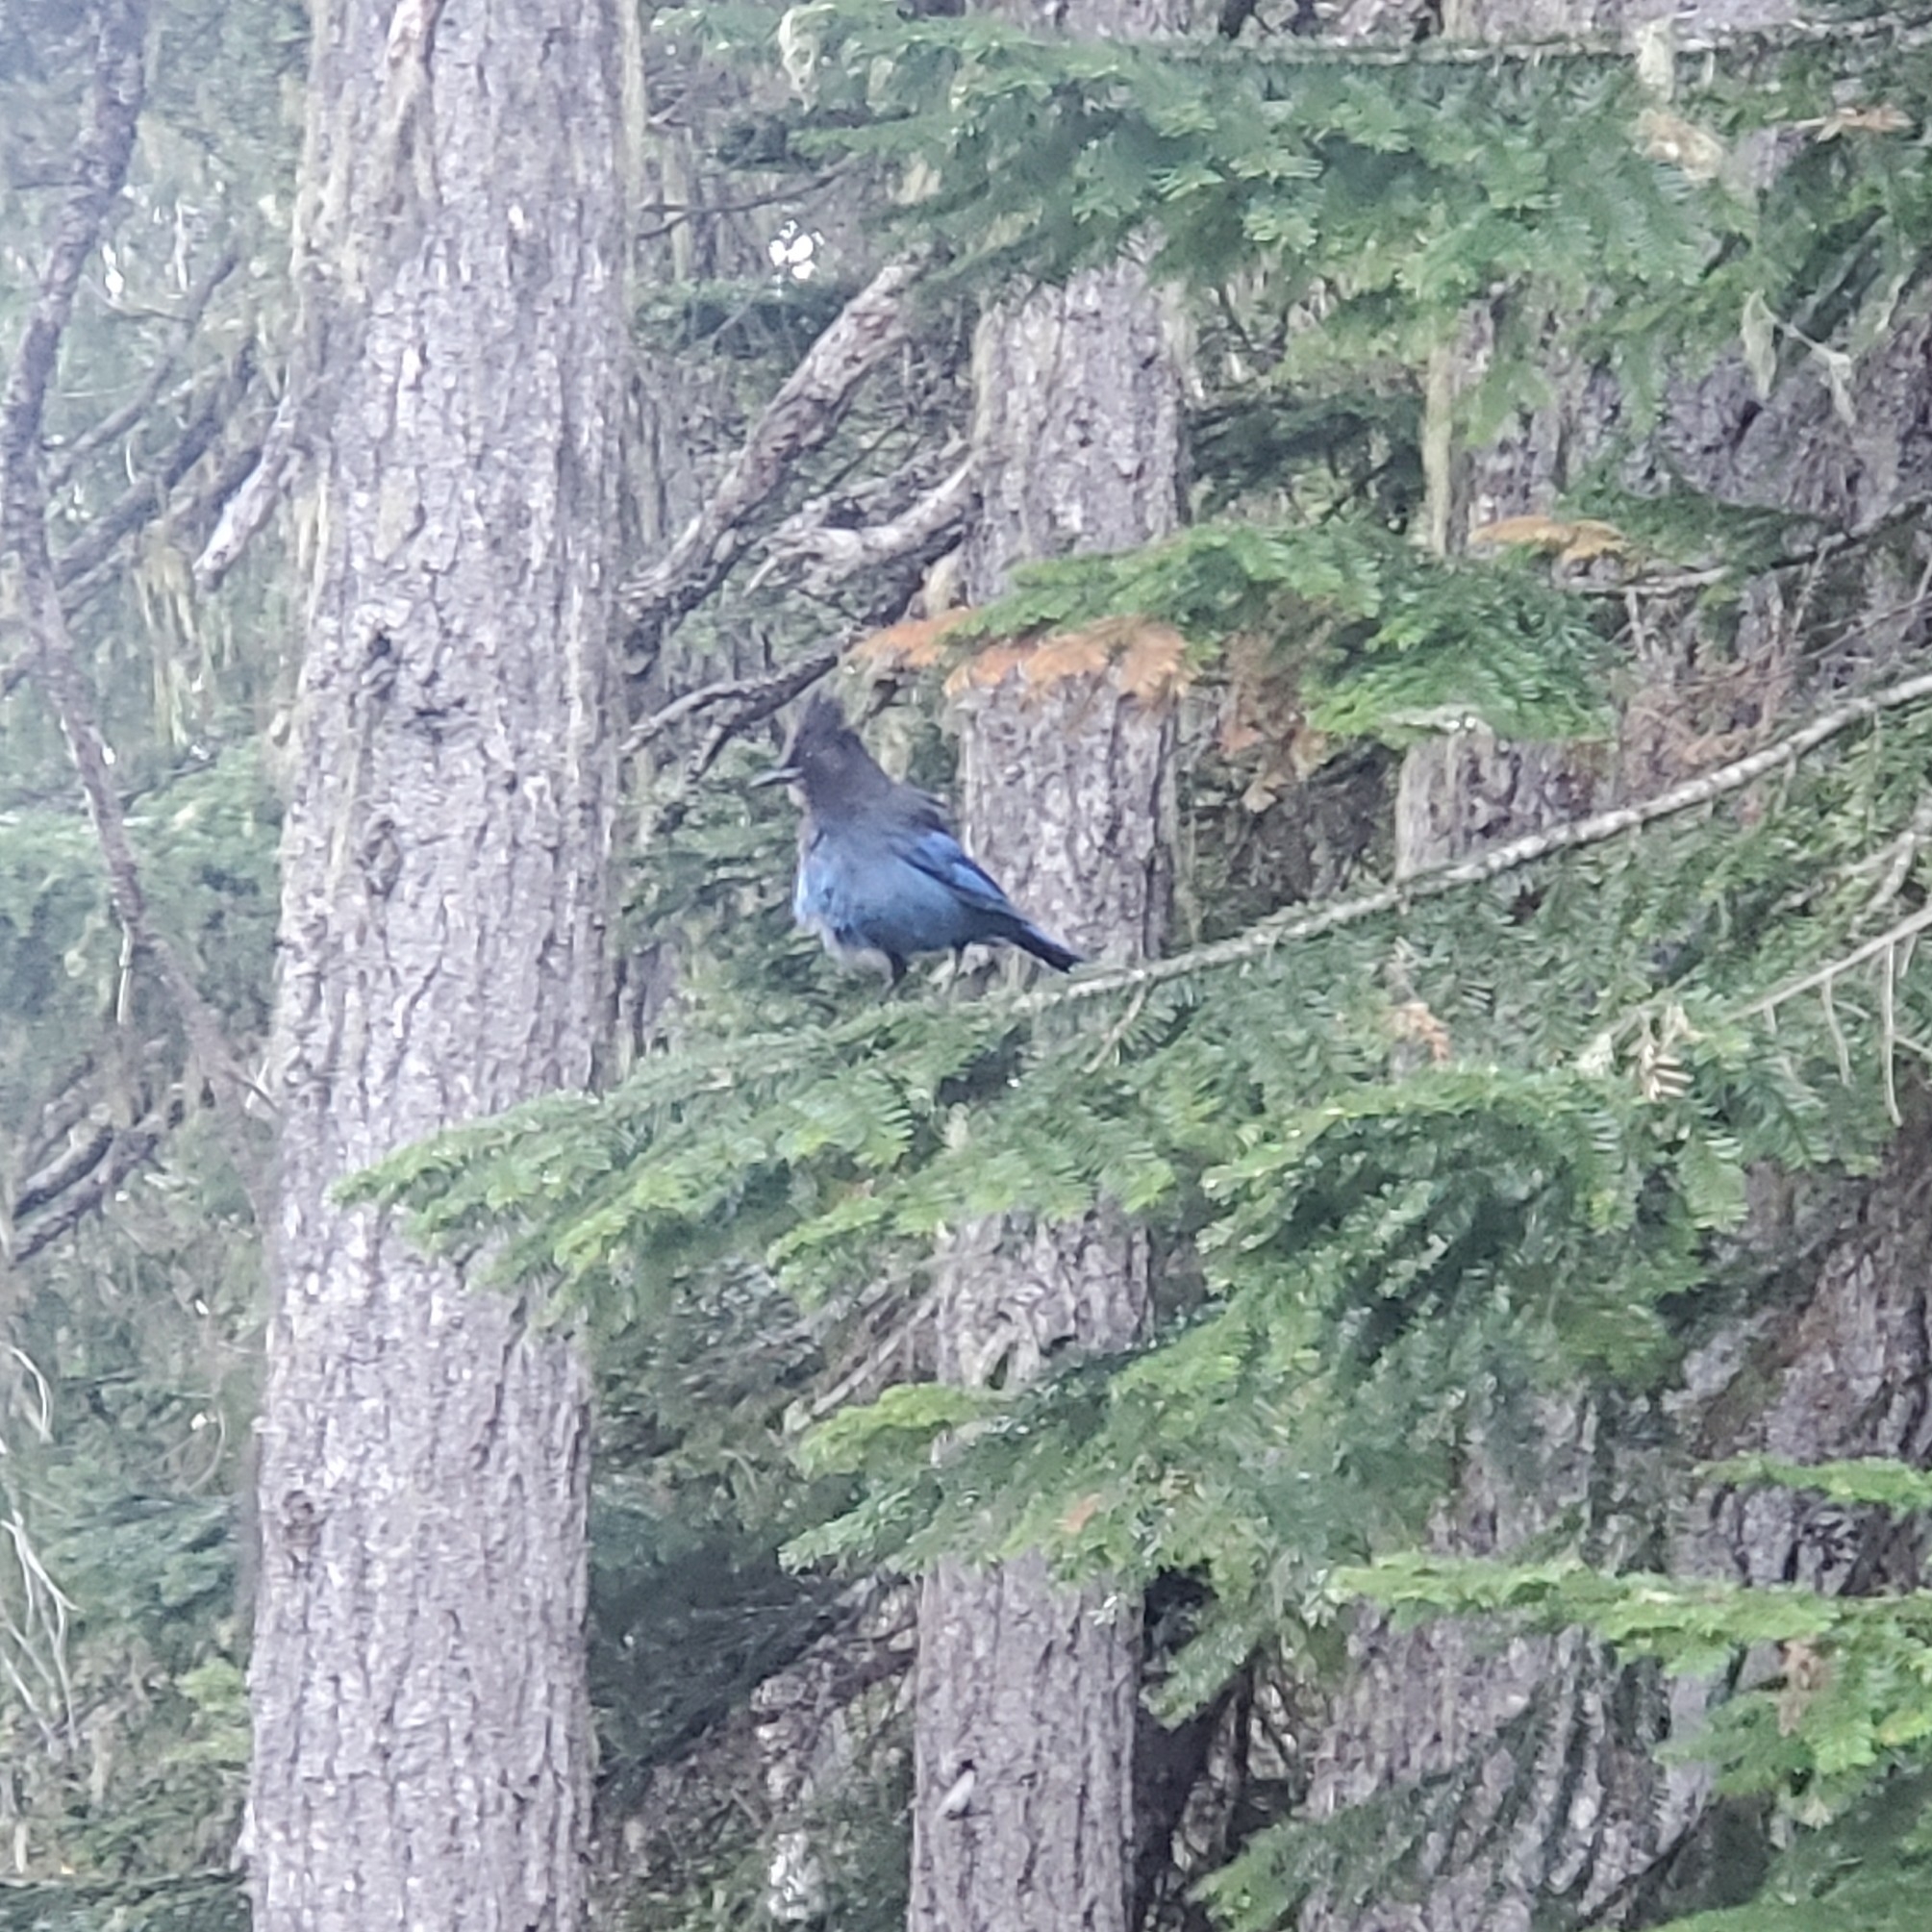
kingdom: Animalia
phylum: Chordata
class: Aves
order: Passeriformes
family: Corvidae
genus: Cyanocitta
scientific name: Cyanocitta stelleri
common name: Steller's jay
